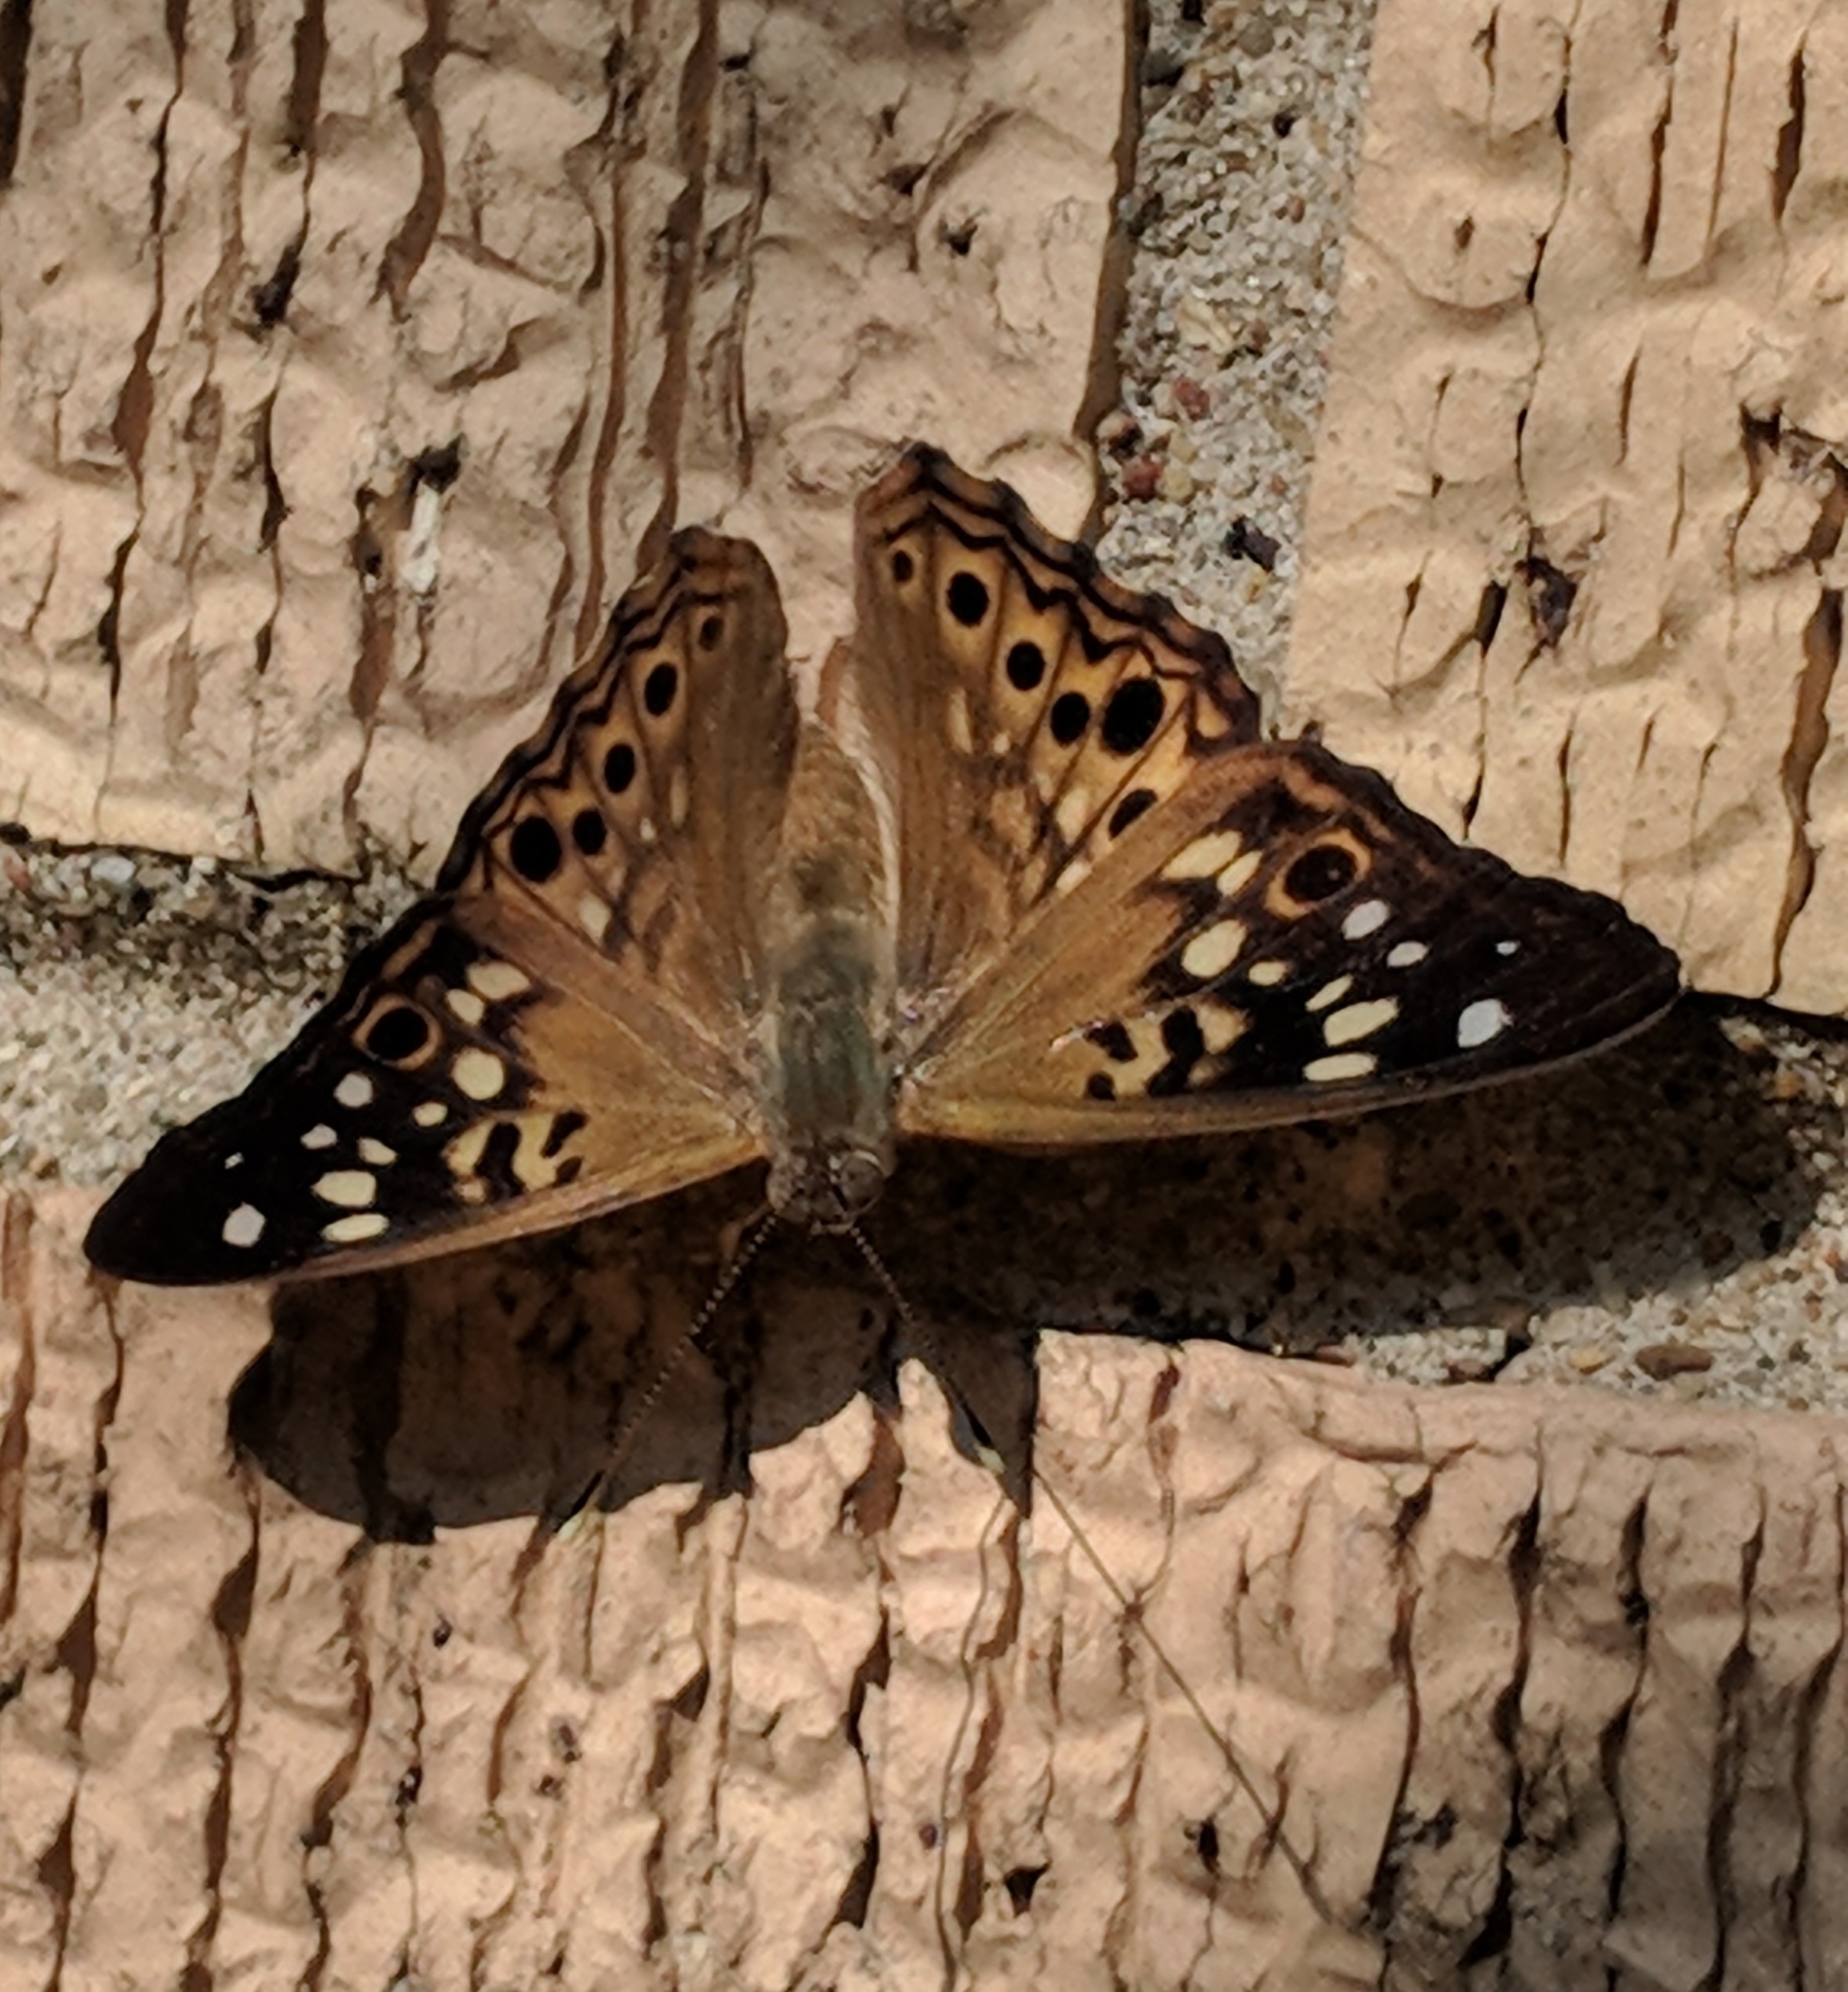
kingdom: Animalia
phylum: Arthropoda
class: Insecta
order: Lepidoptera
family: Nymphalidae
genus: Asterocampa
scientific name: Asterocampa celtis
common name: Hackberry emperor
